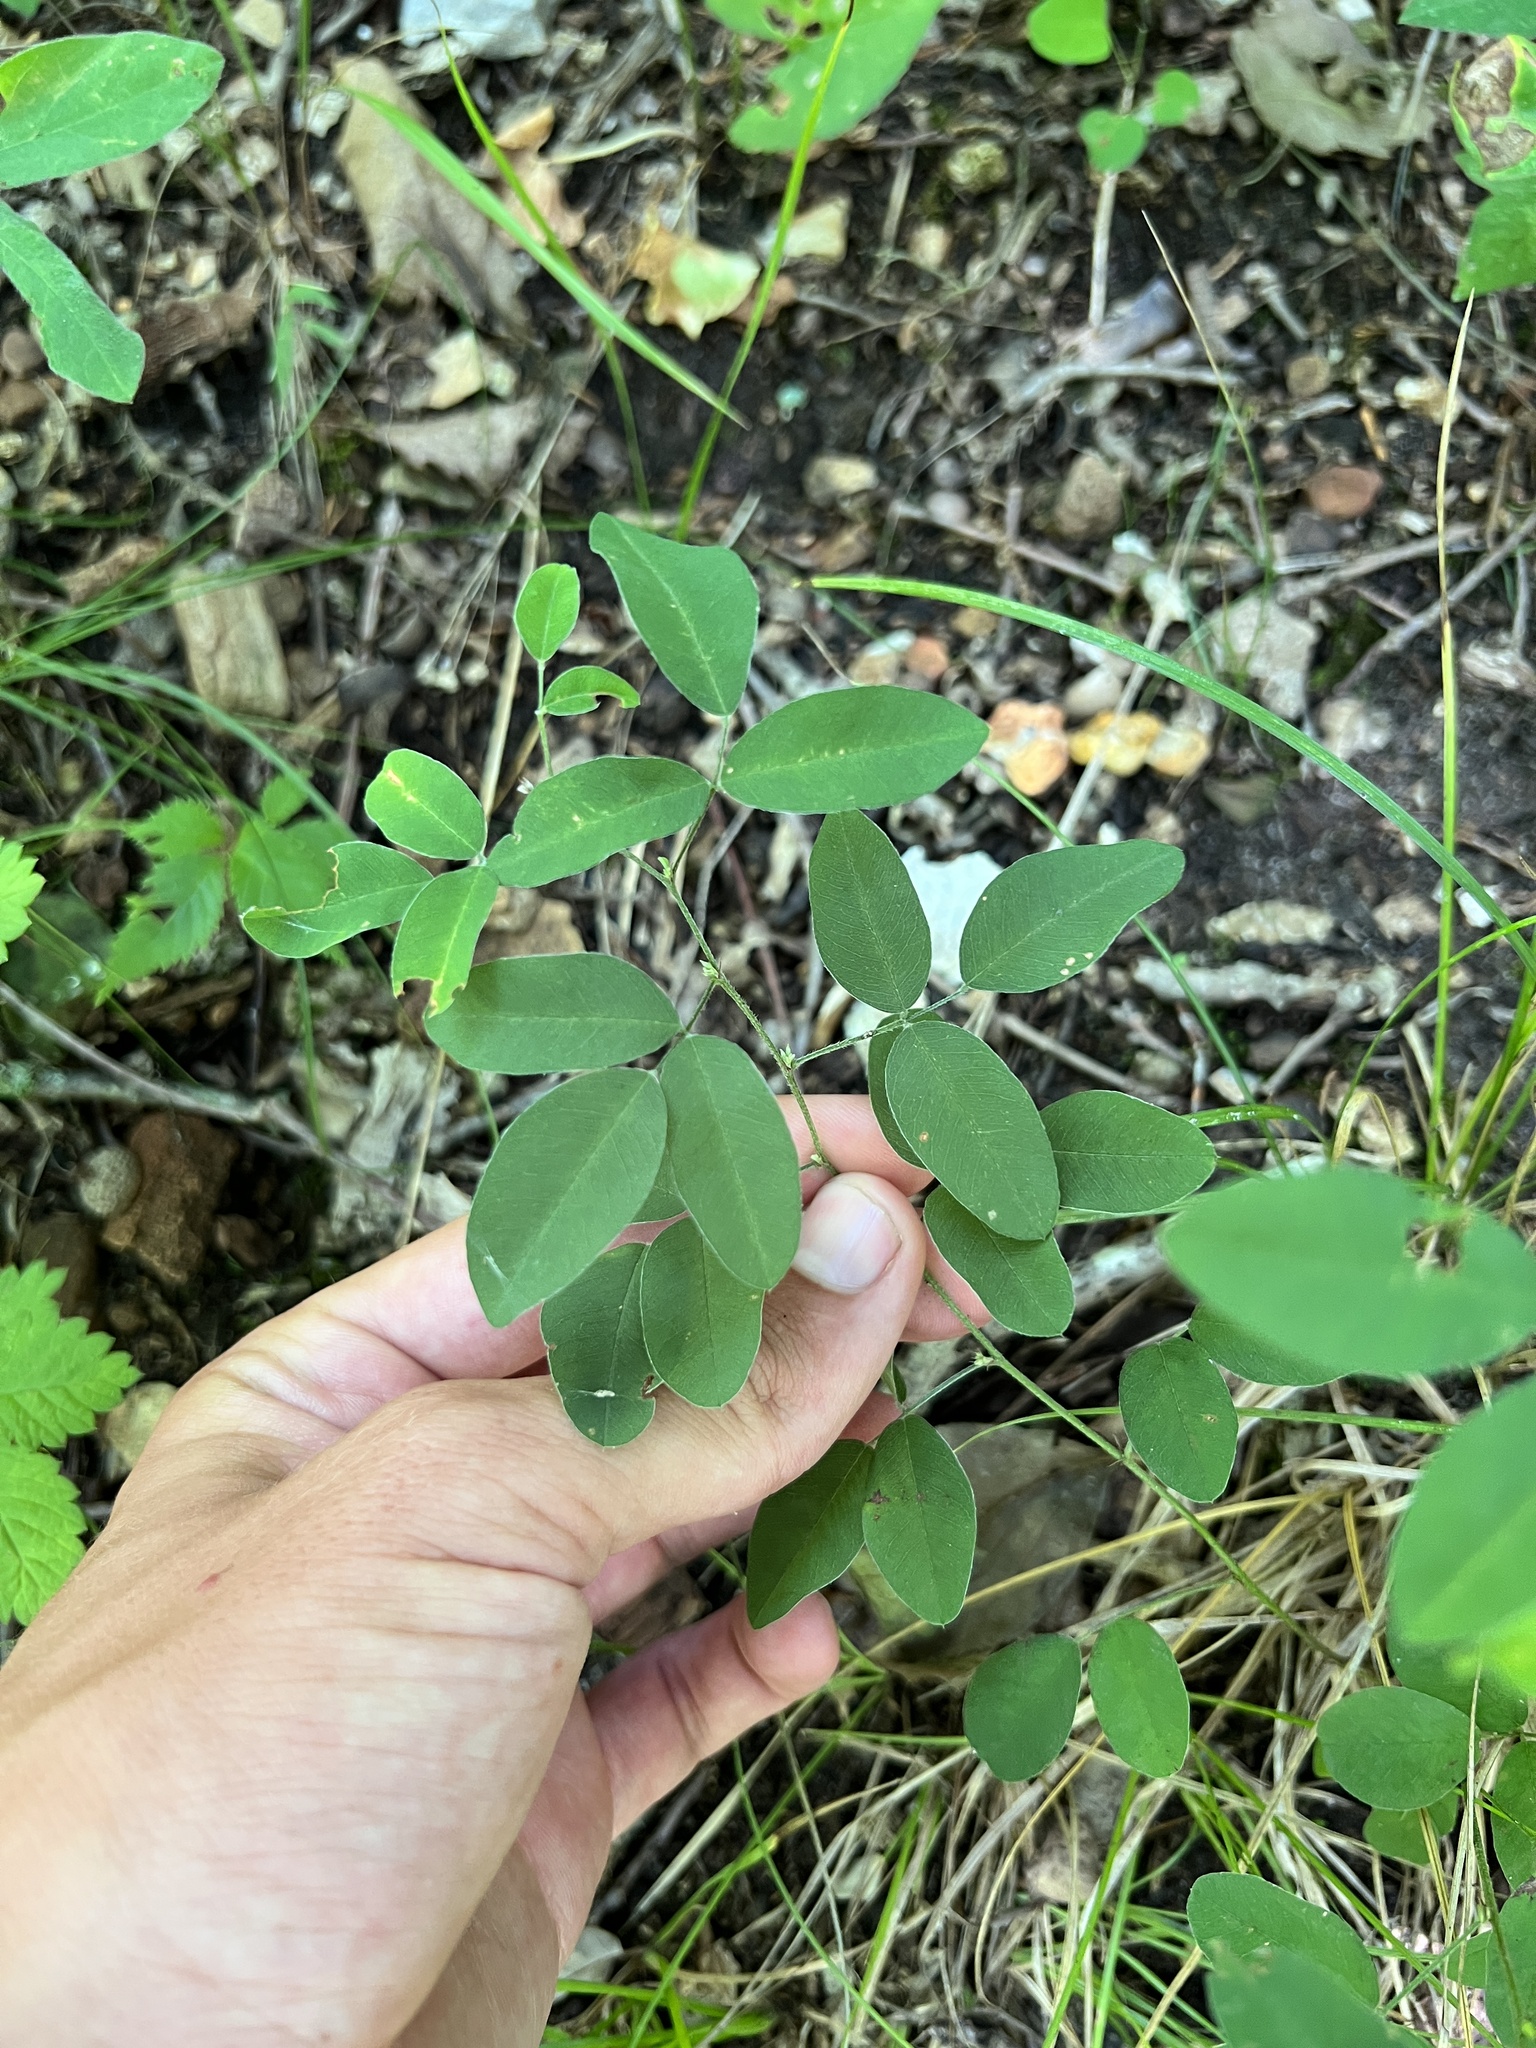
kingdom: Plantae
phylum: Tracheophyta
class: Magnoliopsida
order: Fabales
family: Fabaceae
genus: Lespedeza
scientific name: Lespedeza
